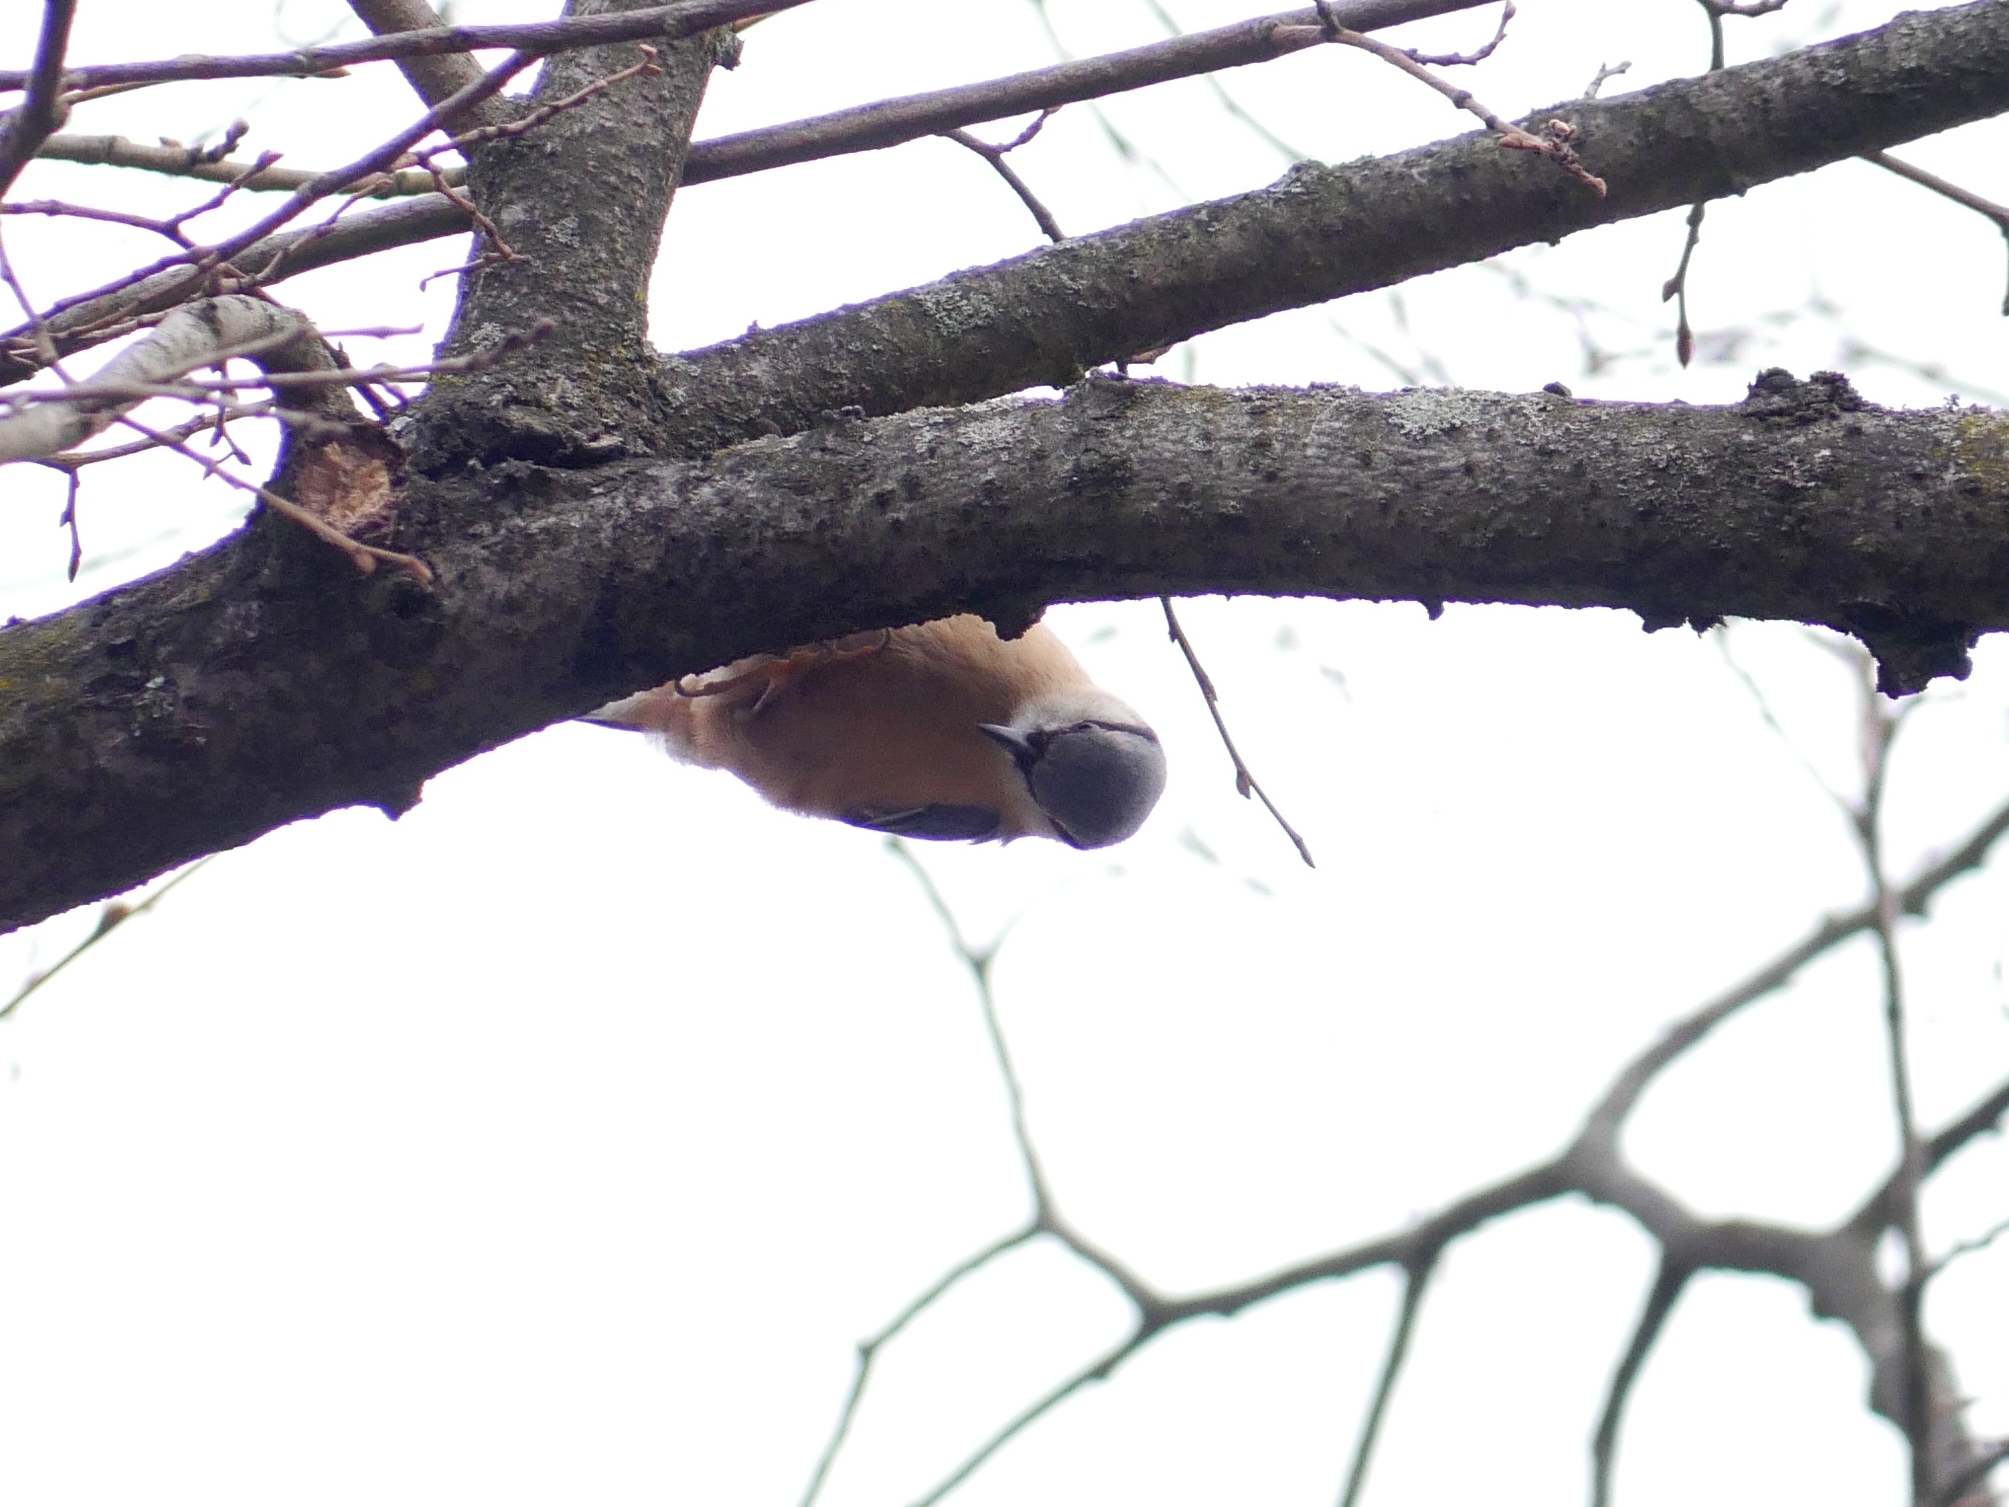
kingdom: Animalia
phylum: Chordata
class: Aves
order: Passeriformes
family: Sittidae
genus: Sitta
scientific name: Sitta europaea
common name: Eurasian nuthatch
